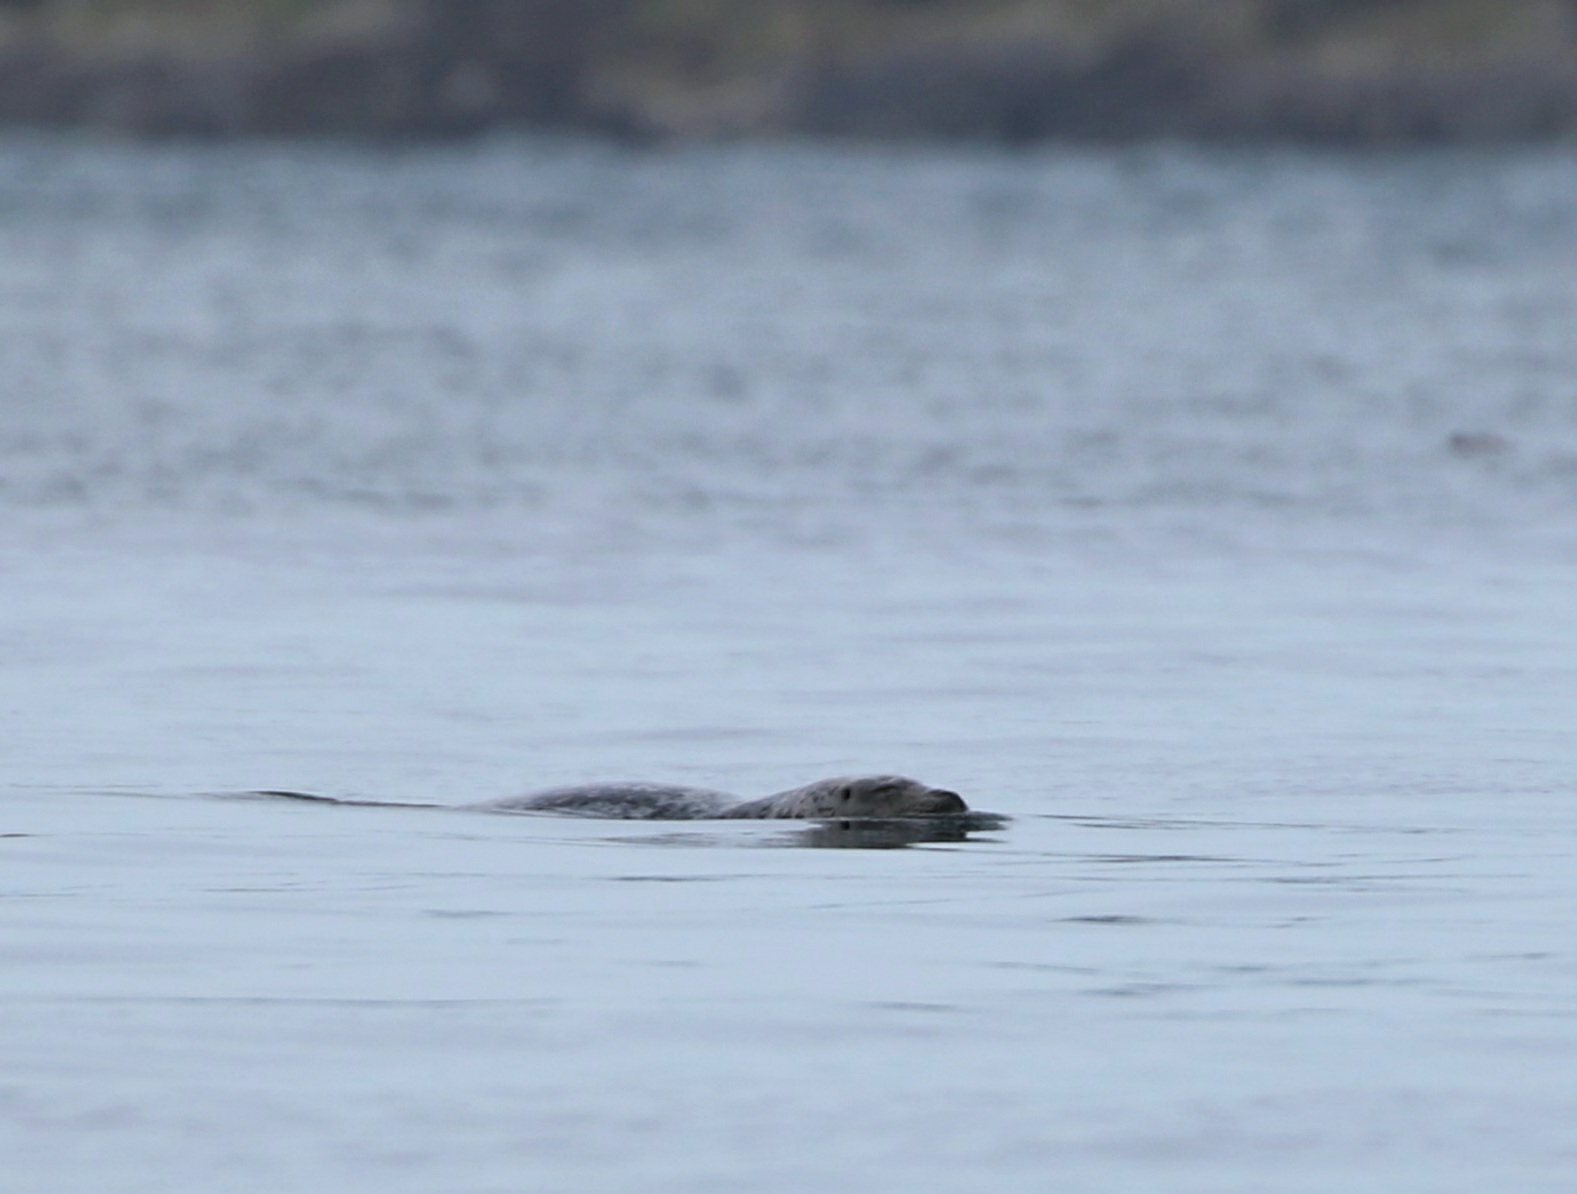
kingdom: Animalia
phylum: Chordata
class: Mammalia
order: Carnivora
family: Phocidae
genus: Phoca
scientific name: Phoca vitulina
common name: Harbor seal
